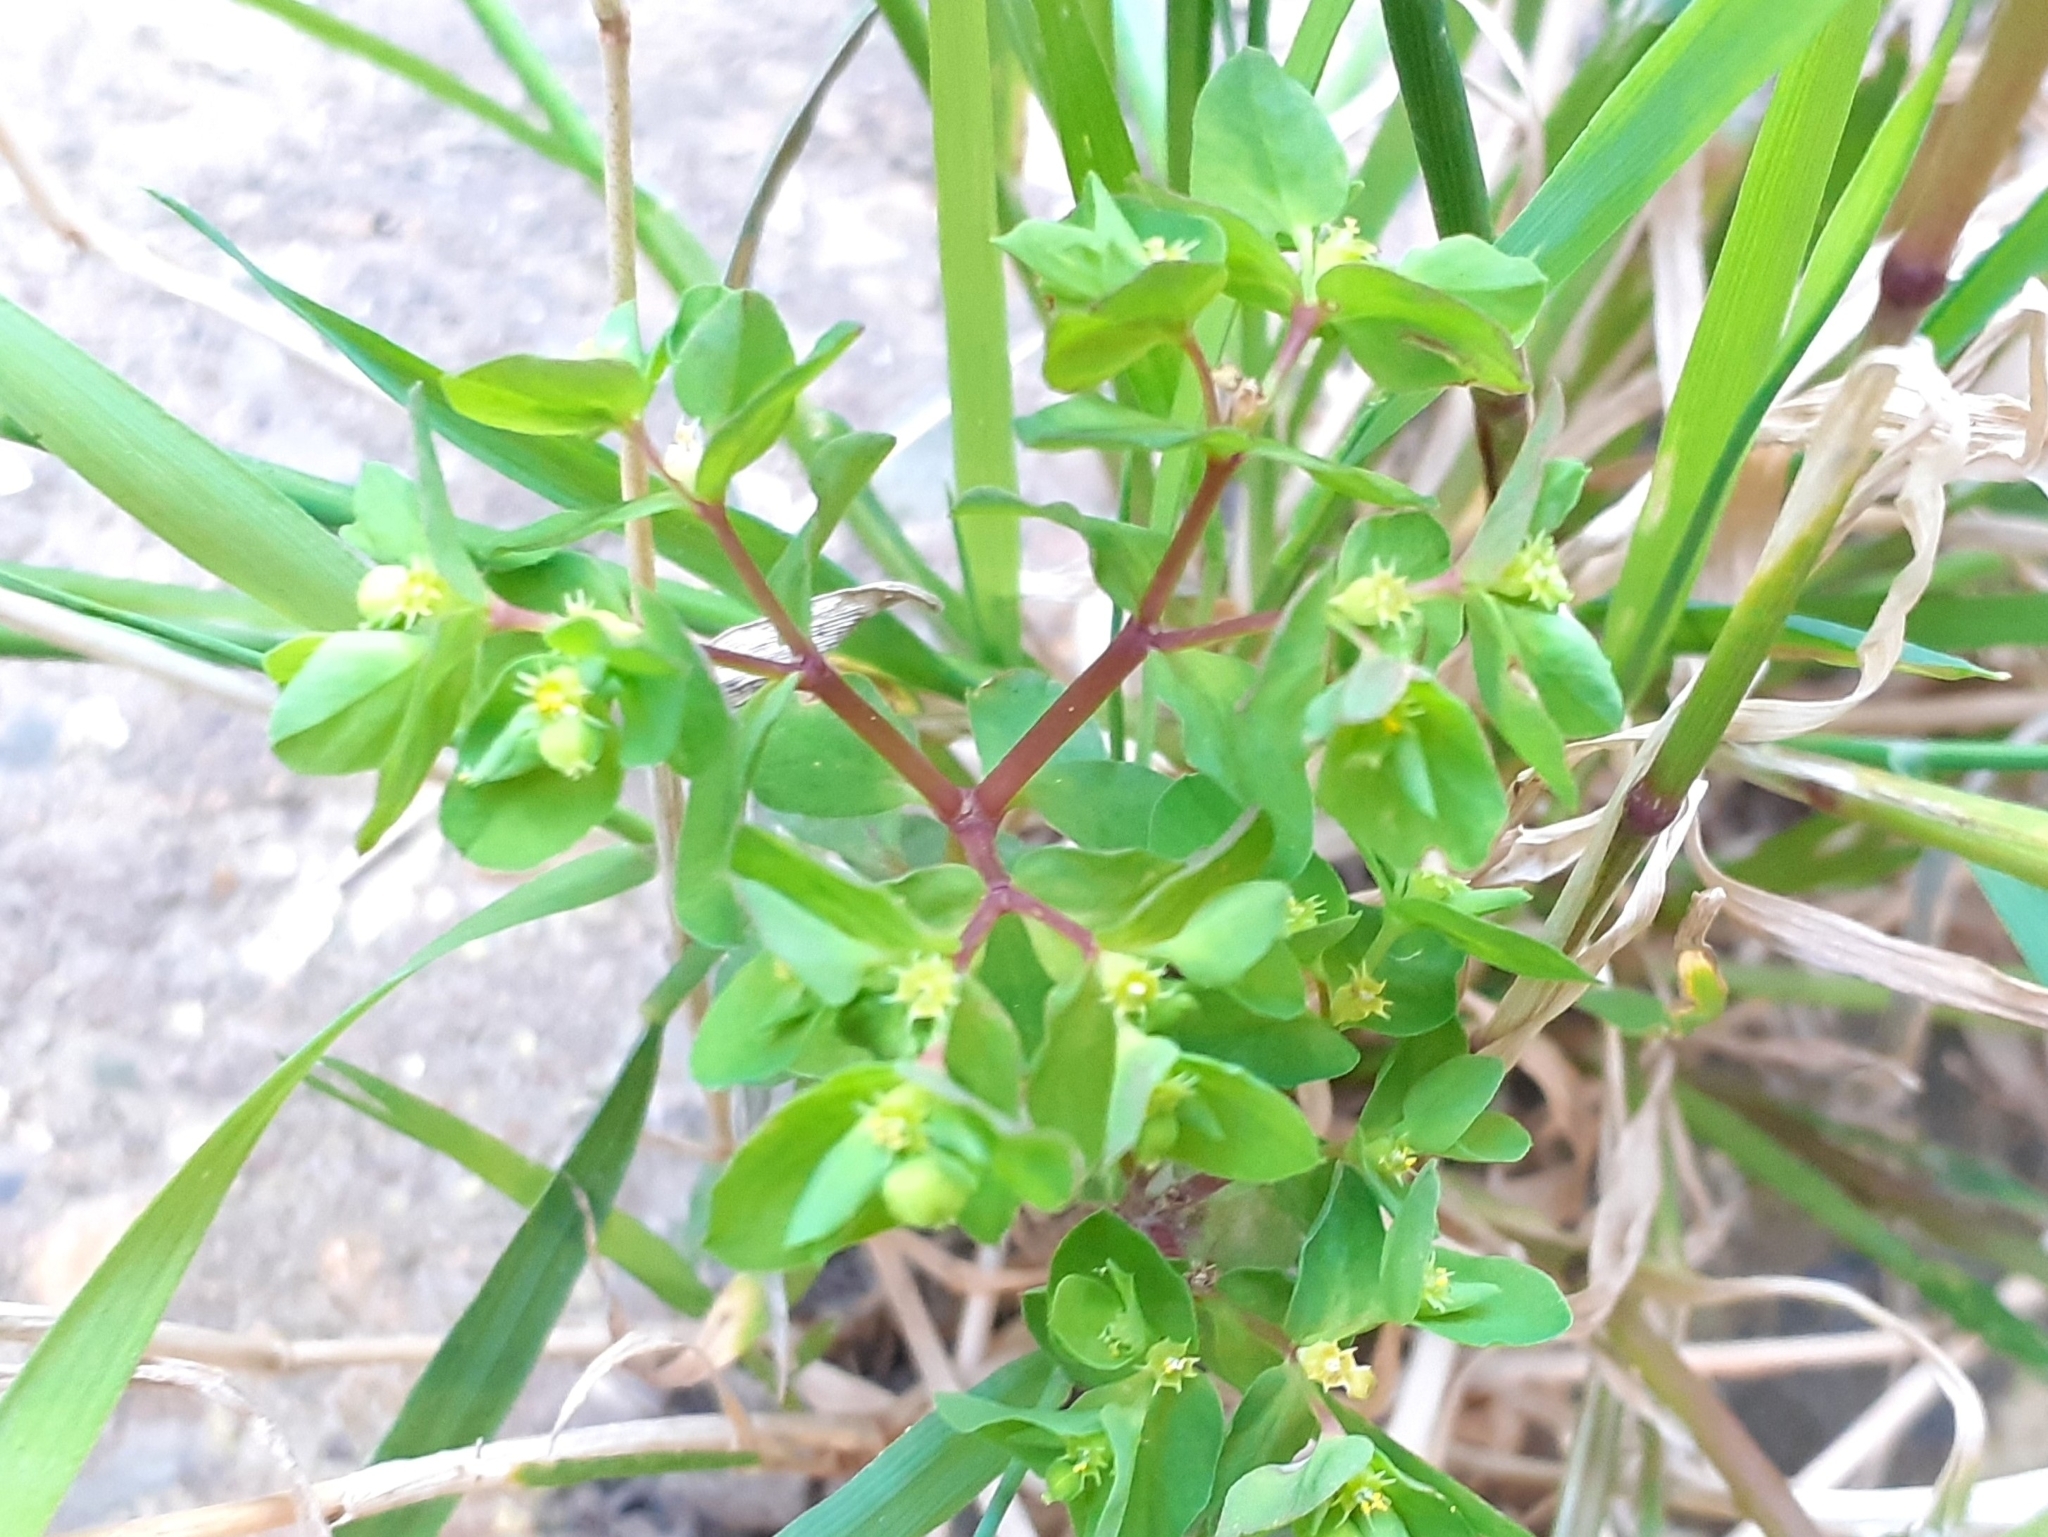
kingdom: Plantae
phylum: Tracheophyta
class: Magnoliopsida
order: Malpighiales
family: Euphorbiaceae
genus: Euphorbia
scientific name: Euphorbia peplus
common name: Petty spurge
